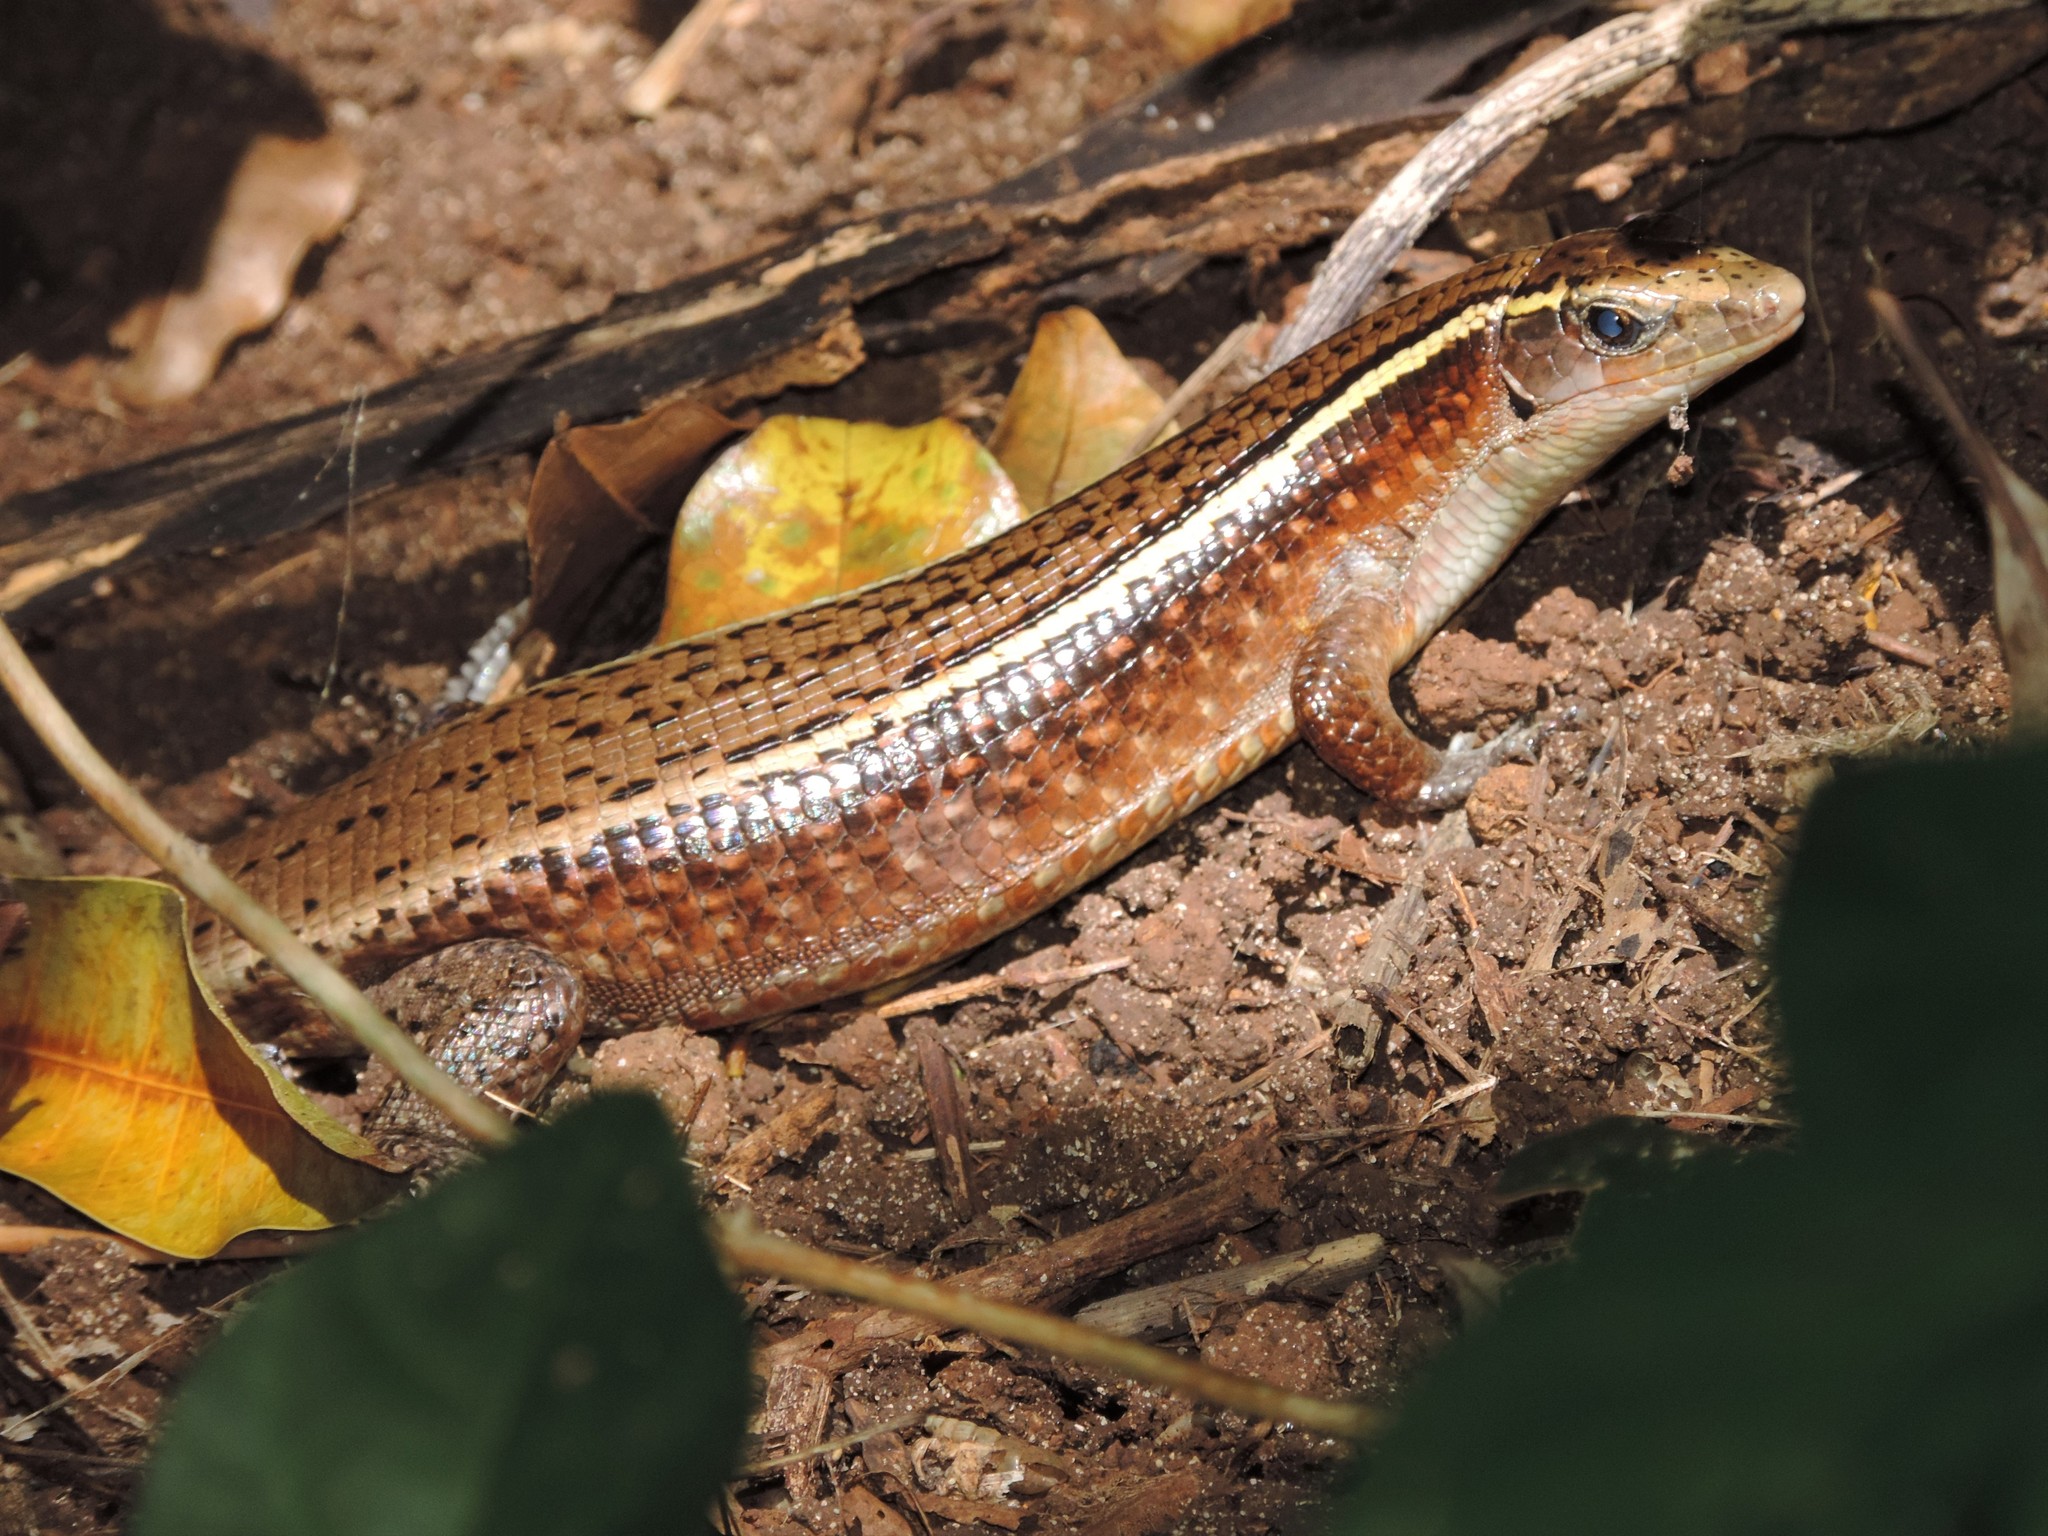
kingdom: Animalia
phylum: Chordata
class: Squamata
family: Gerrhosauridae
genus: Zonosaurus
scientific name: Zonosaurus madagascariensis
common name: Madagascar girdled lizard
